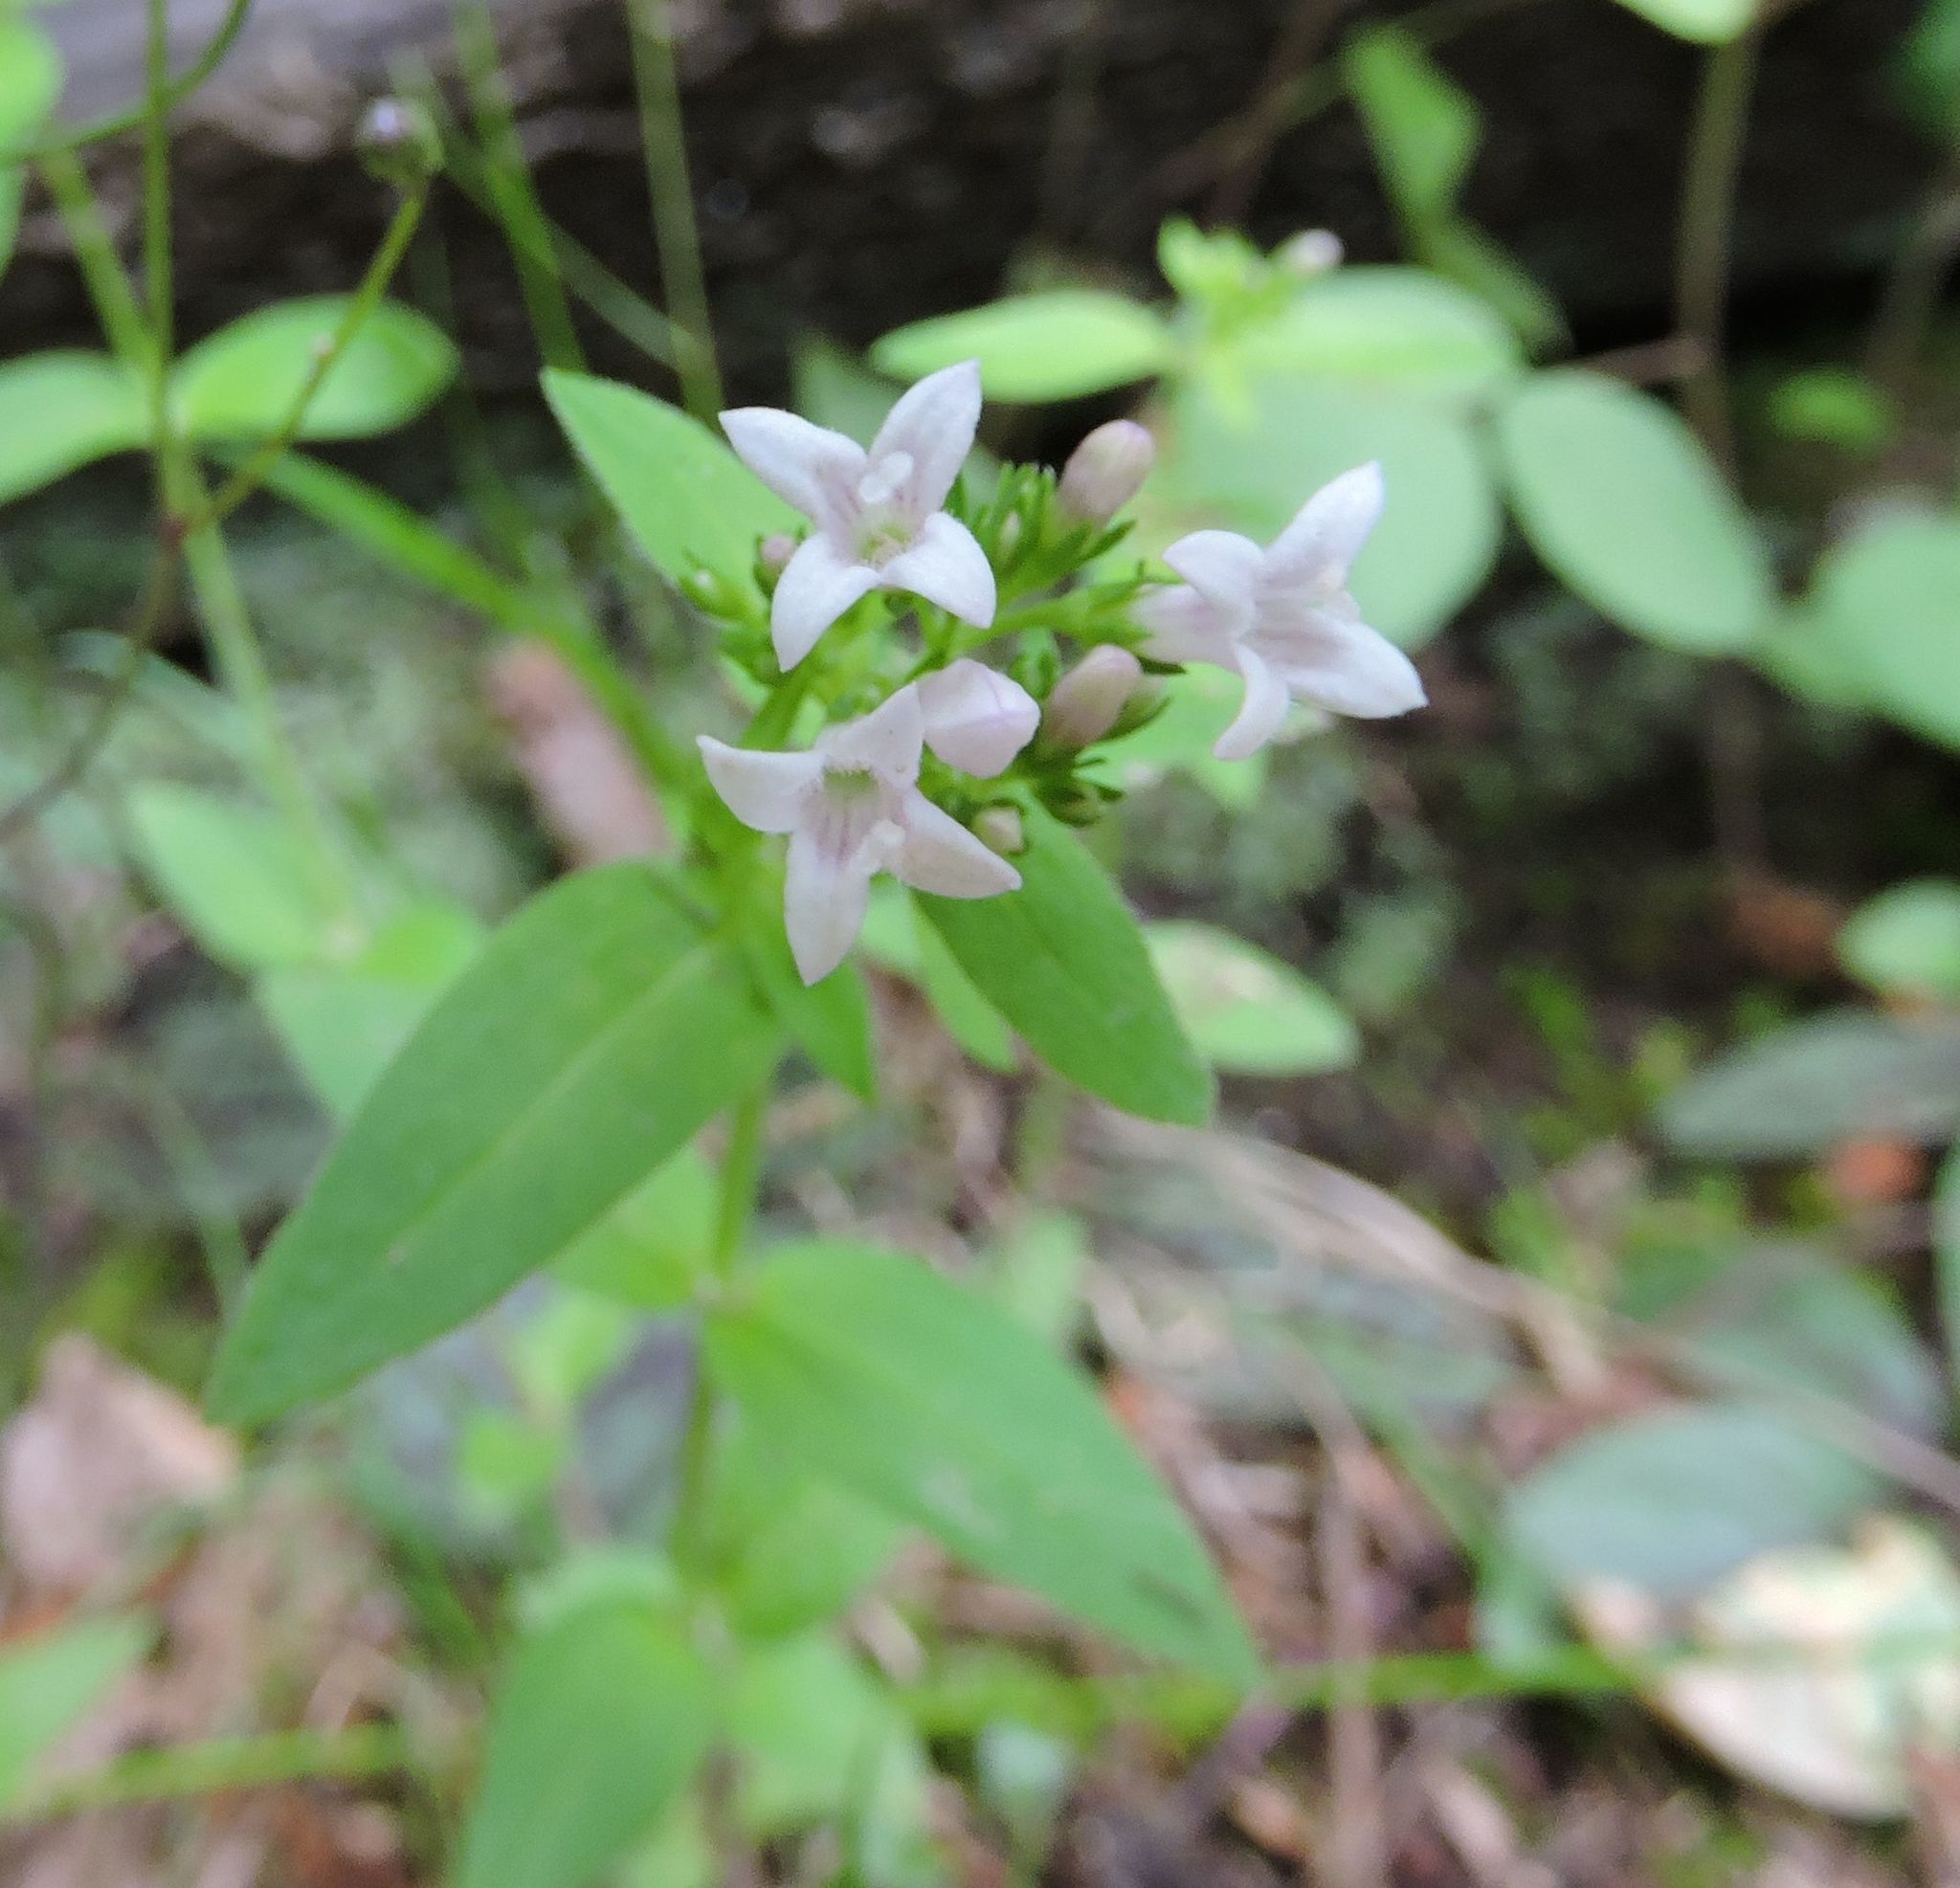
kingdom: Plantae
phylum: Tracheophyta
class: Magnoliopsida
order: Gentianales
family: Rubiaceae
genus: Houstonia
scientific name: Houstonia purpurea
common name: Summer bluet
